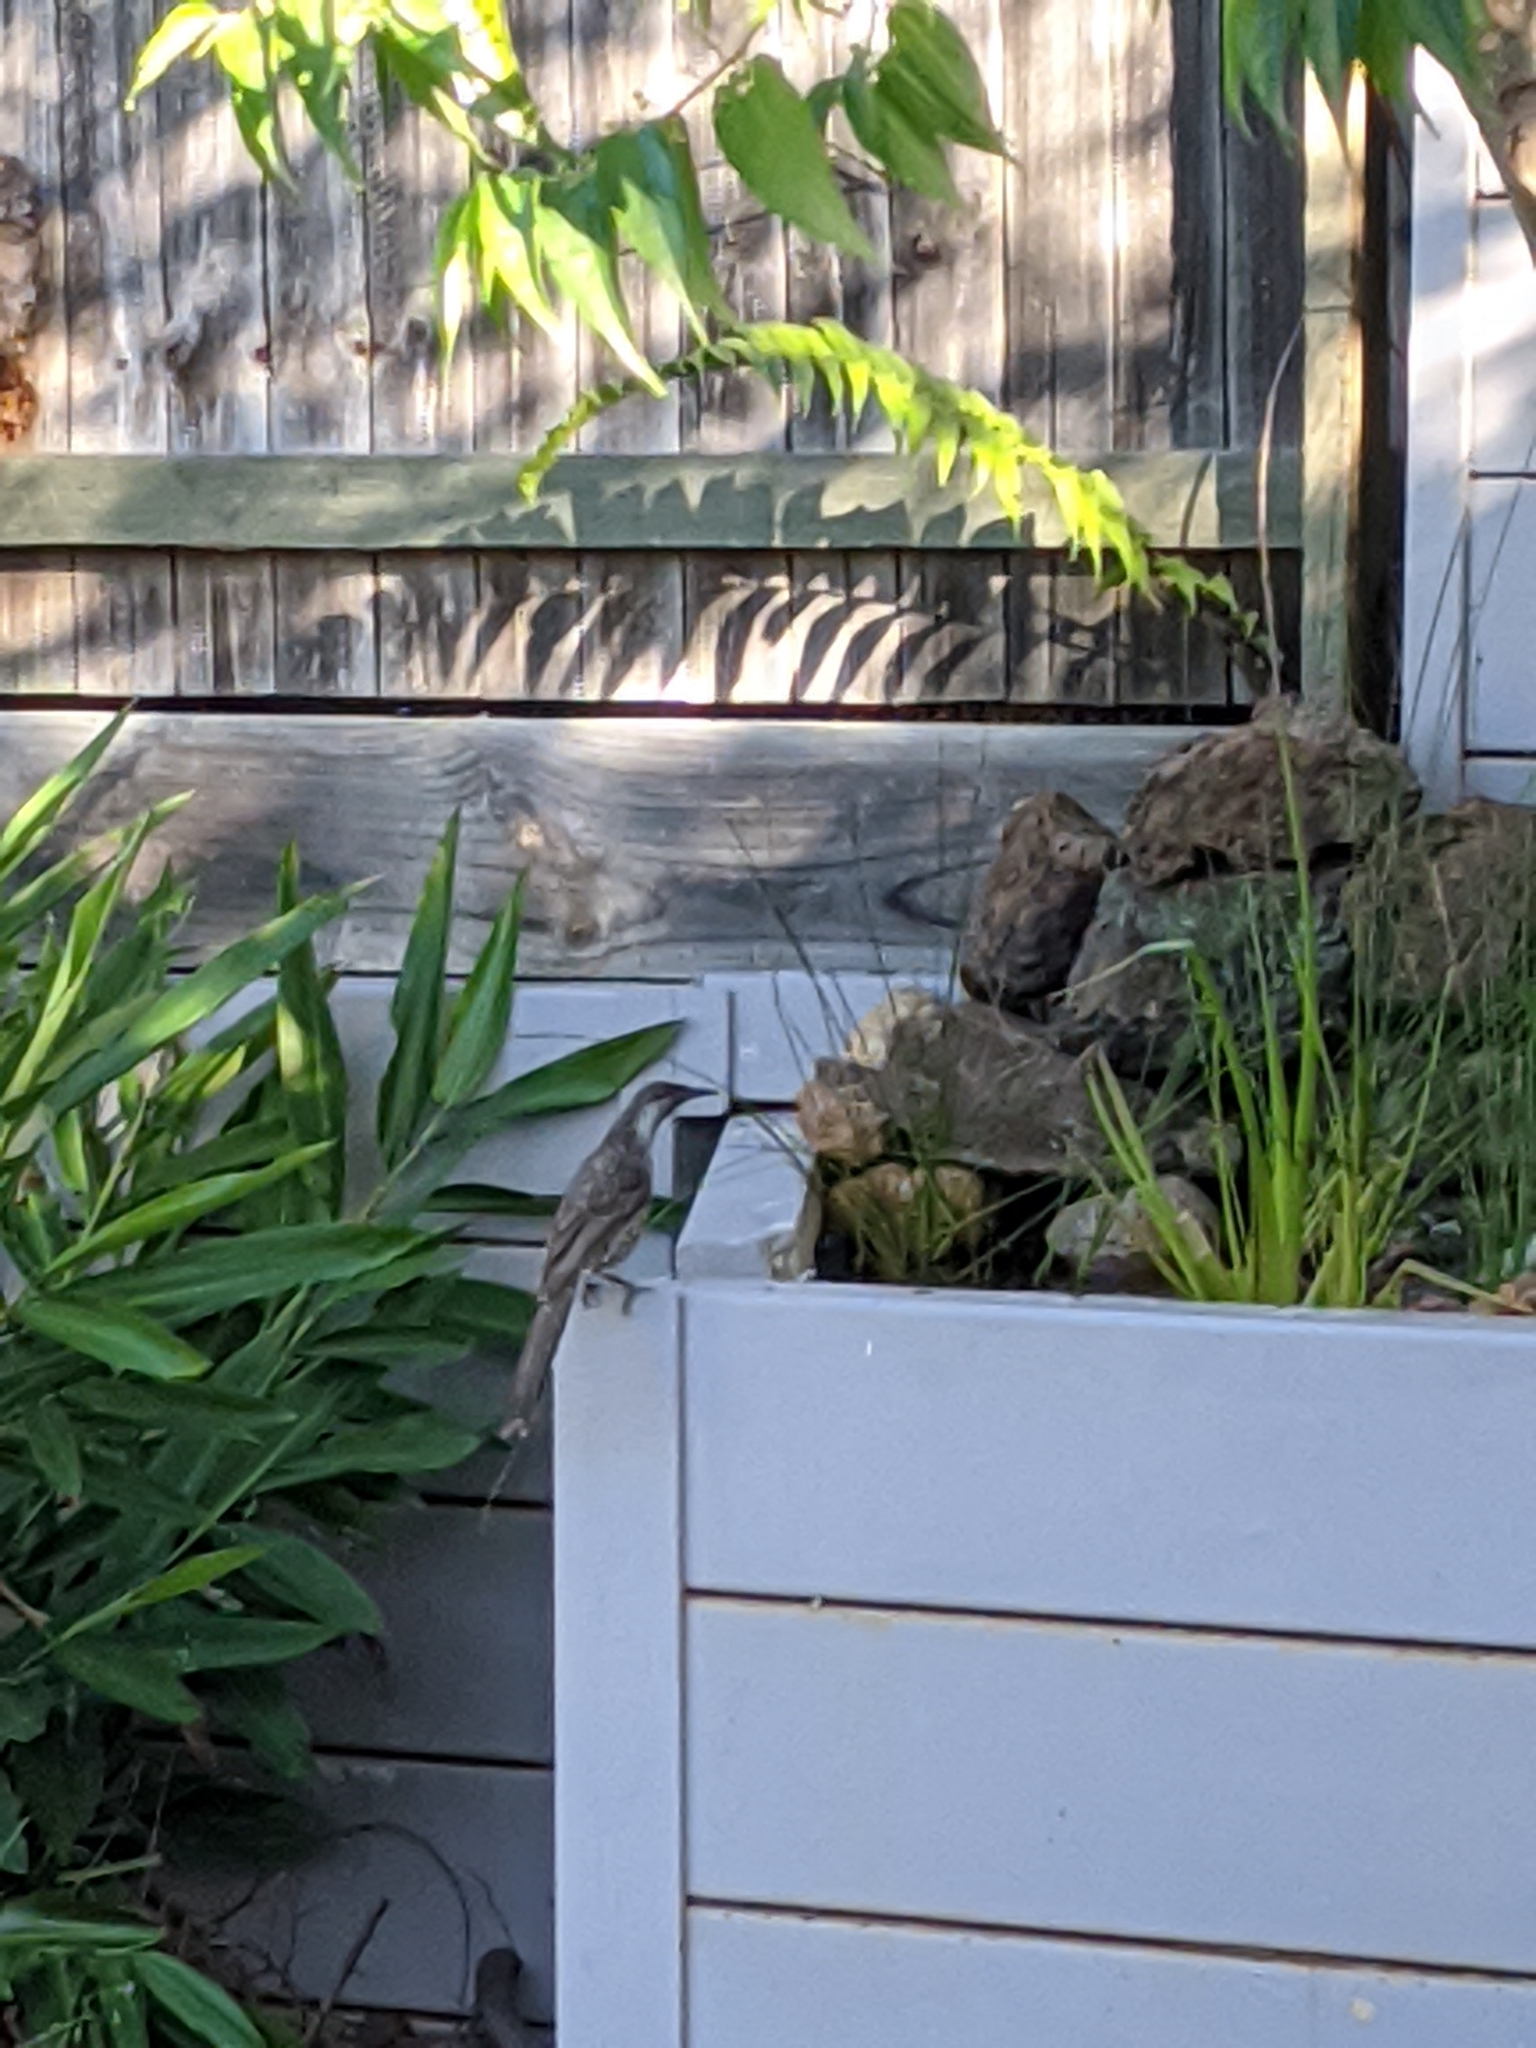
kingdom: Animalia
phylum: Chordata
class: Aves
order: Passeriformes
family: Meliphagidae
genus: Anthochaera
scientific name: Anthochaera carunculata
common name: Red wattlebird
